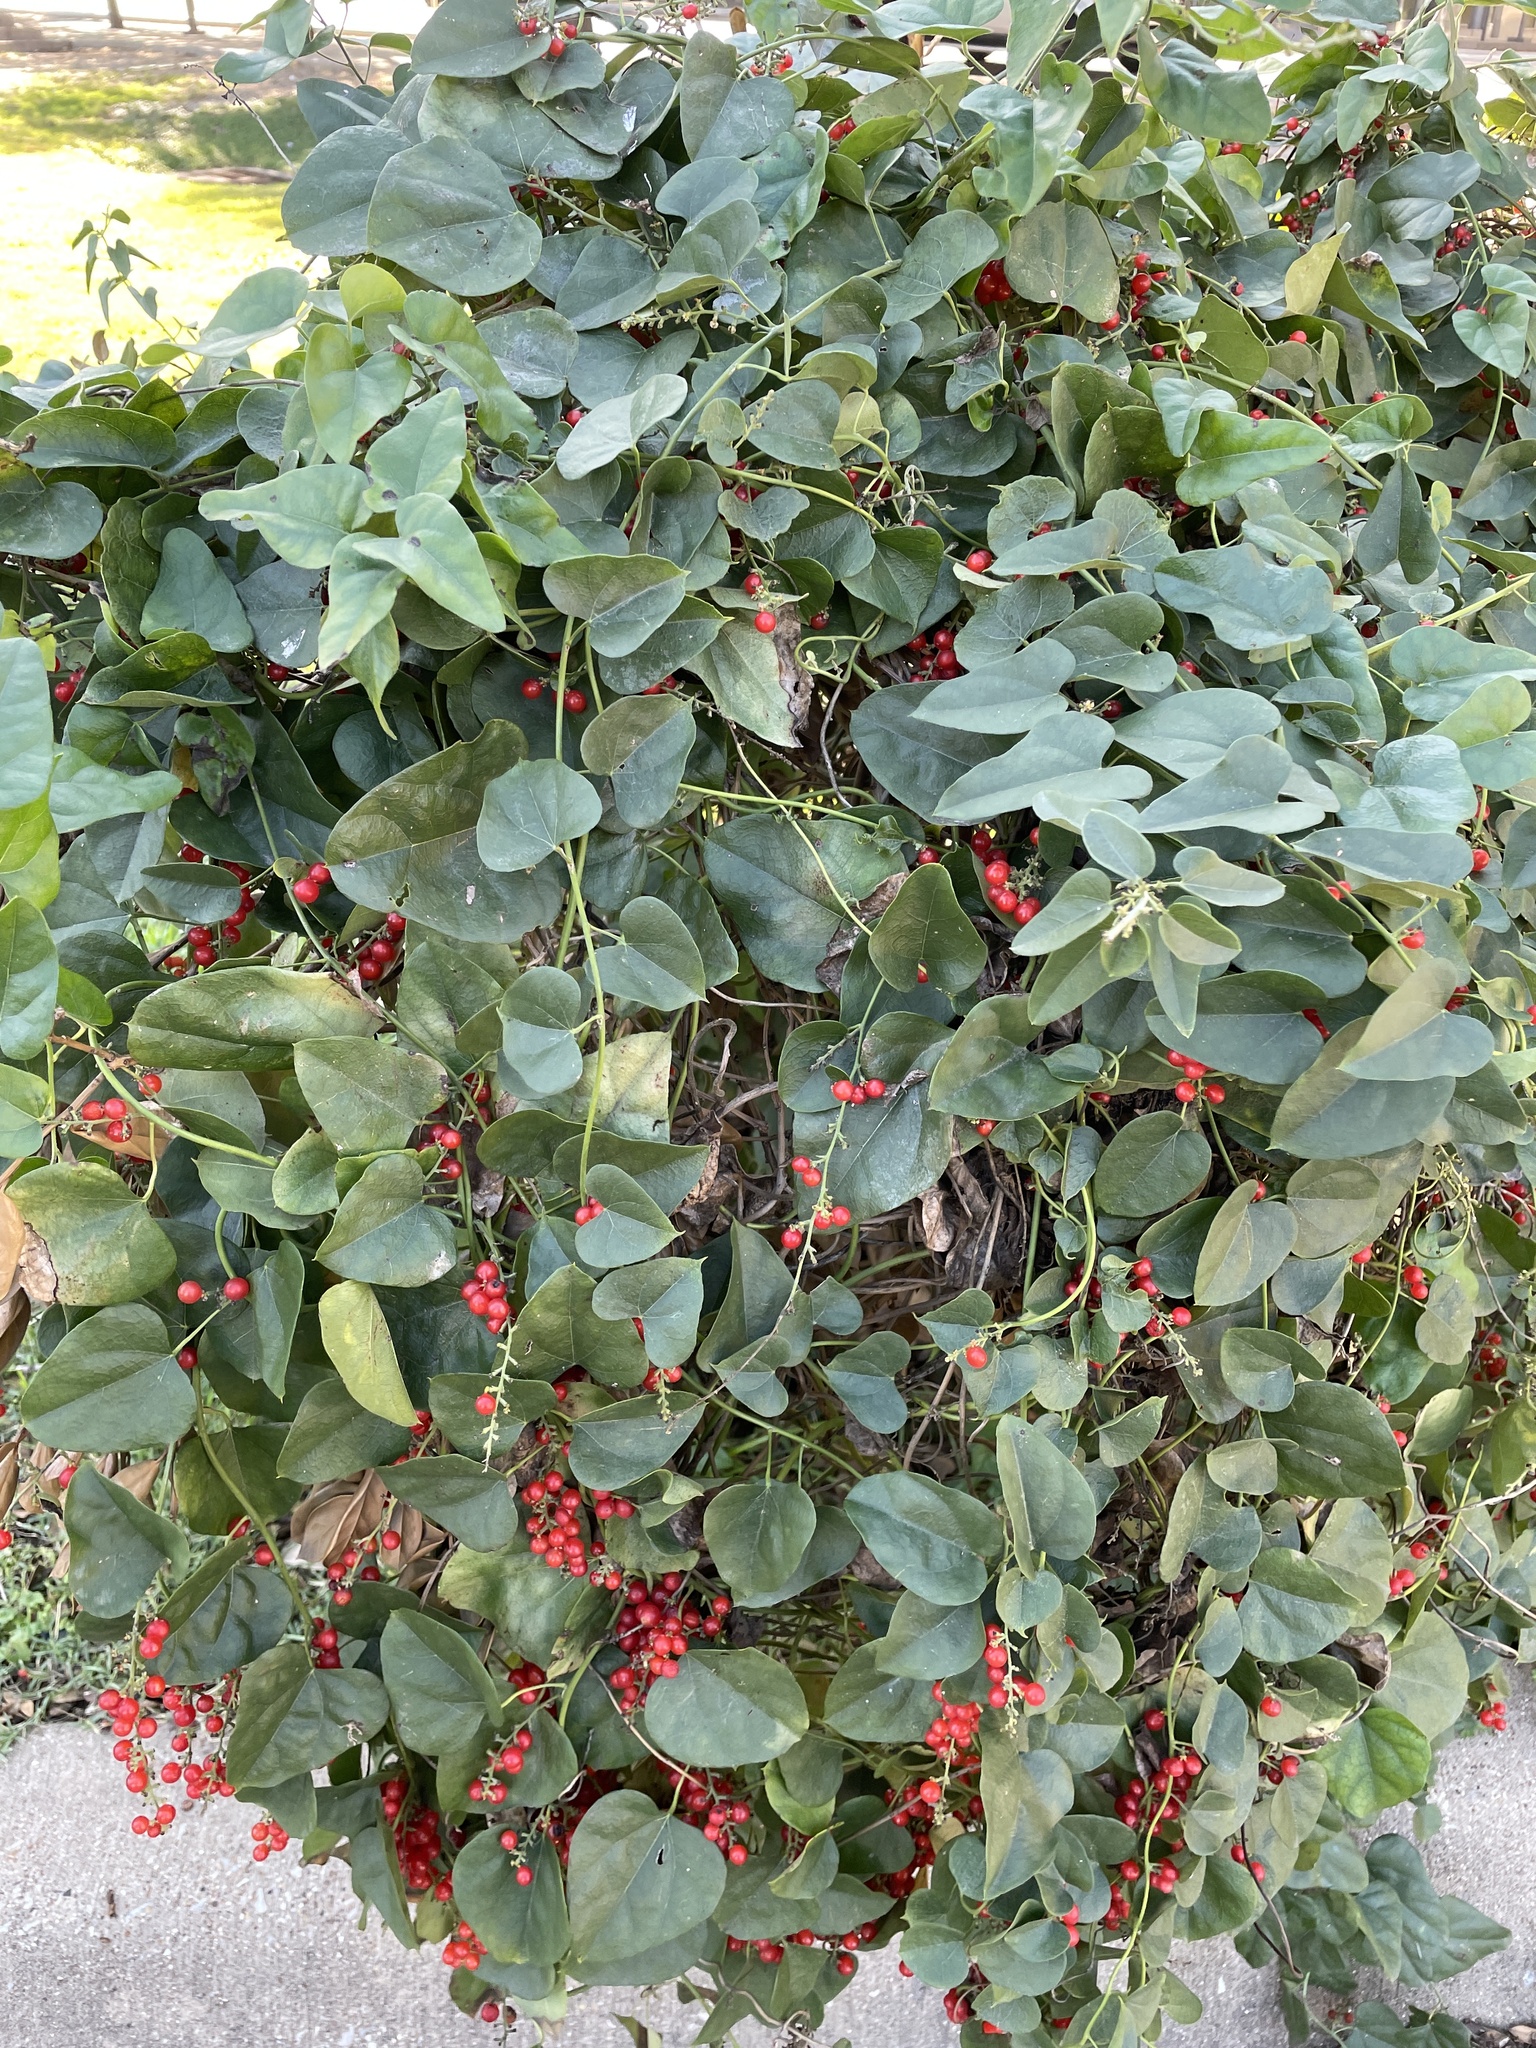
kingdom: Plantae
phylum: Tracheophyta
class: Magnoliopsida
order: Ranunculales
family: Menispermaceae
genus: Cocculus
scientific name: Cocculus carolinus
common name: Carolina moonseed
